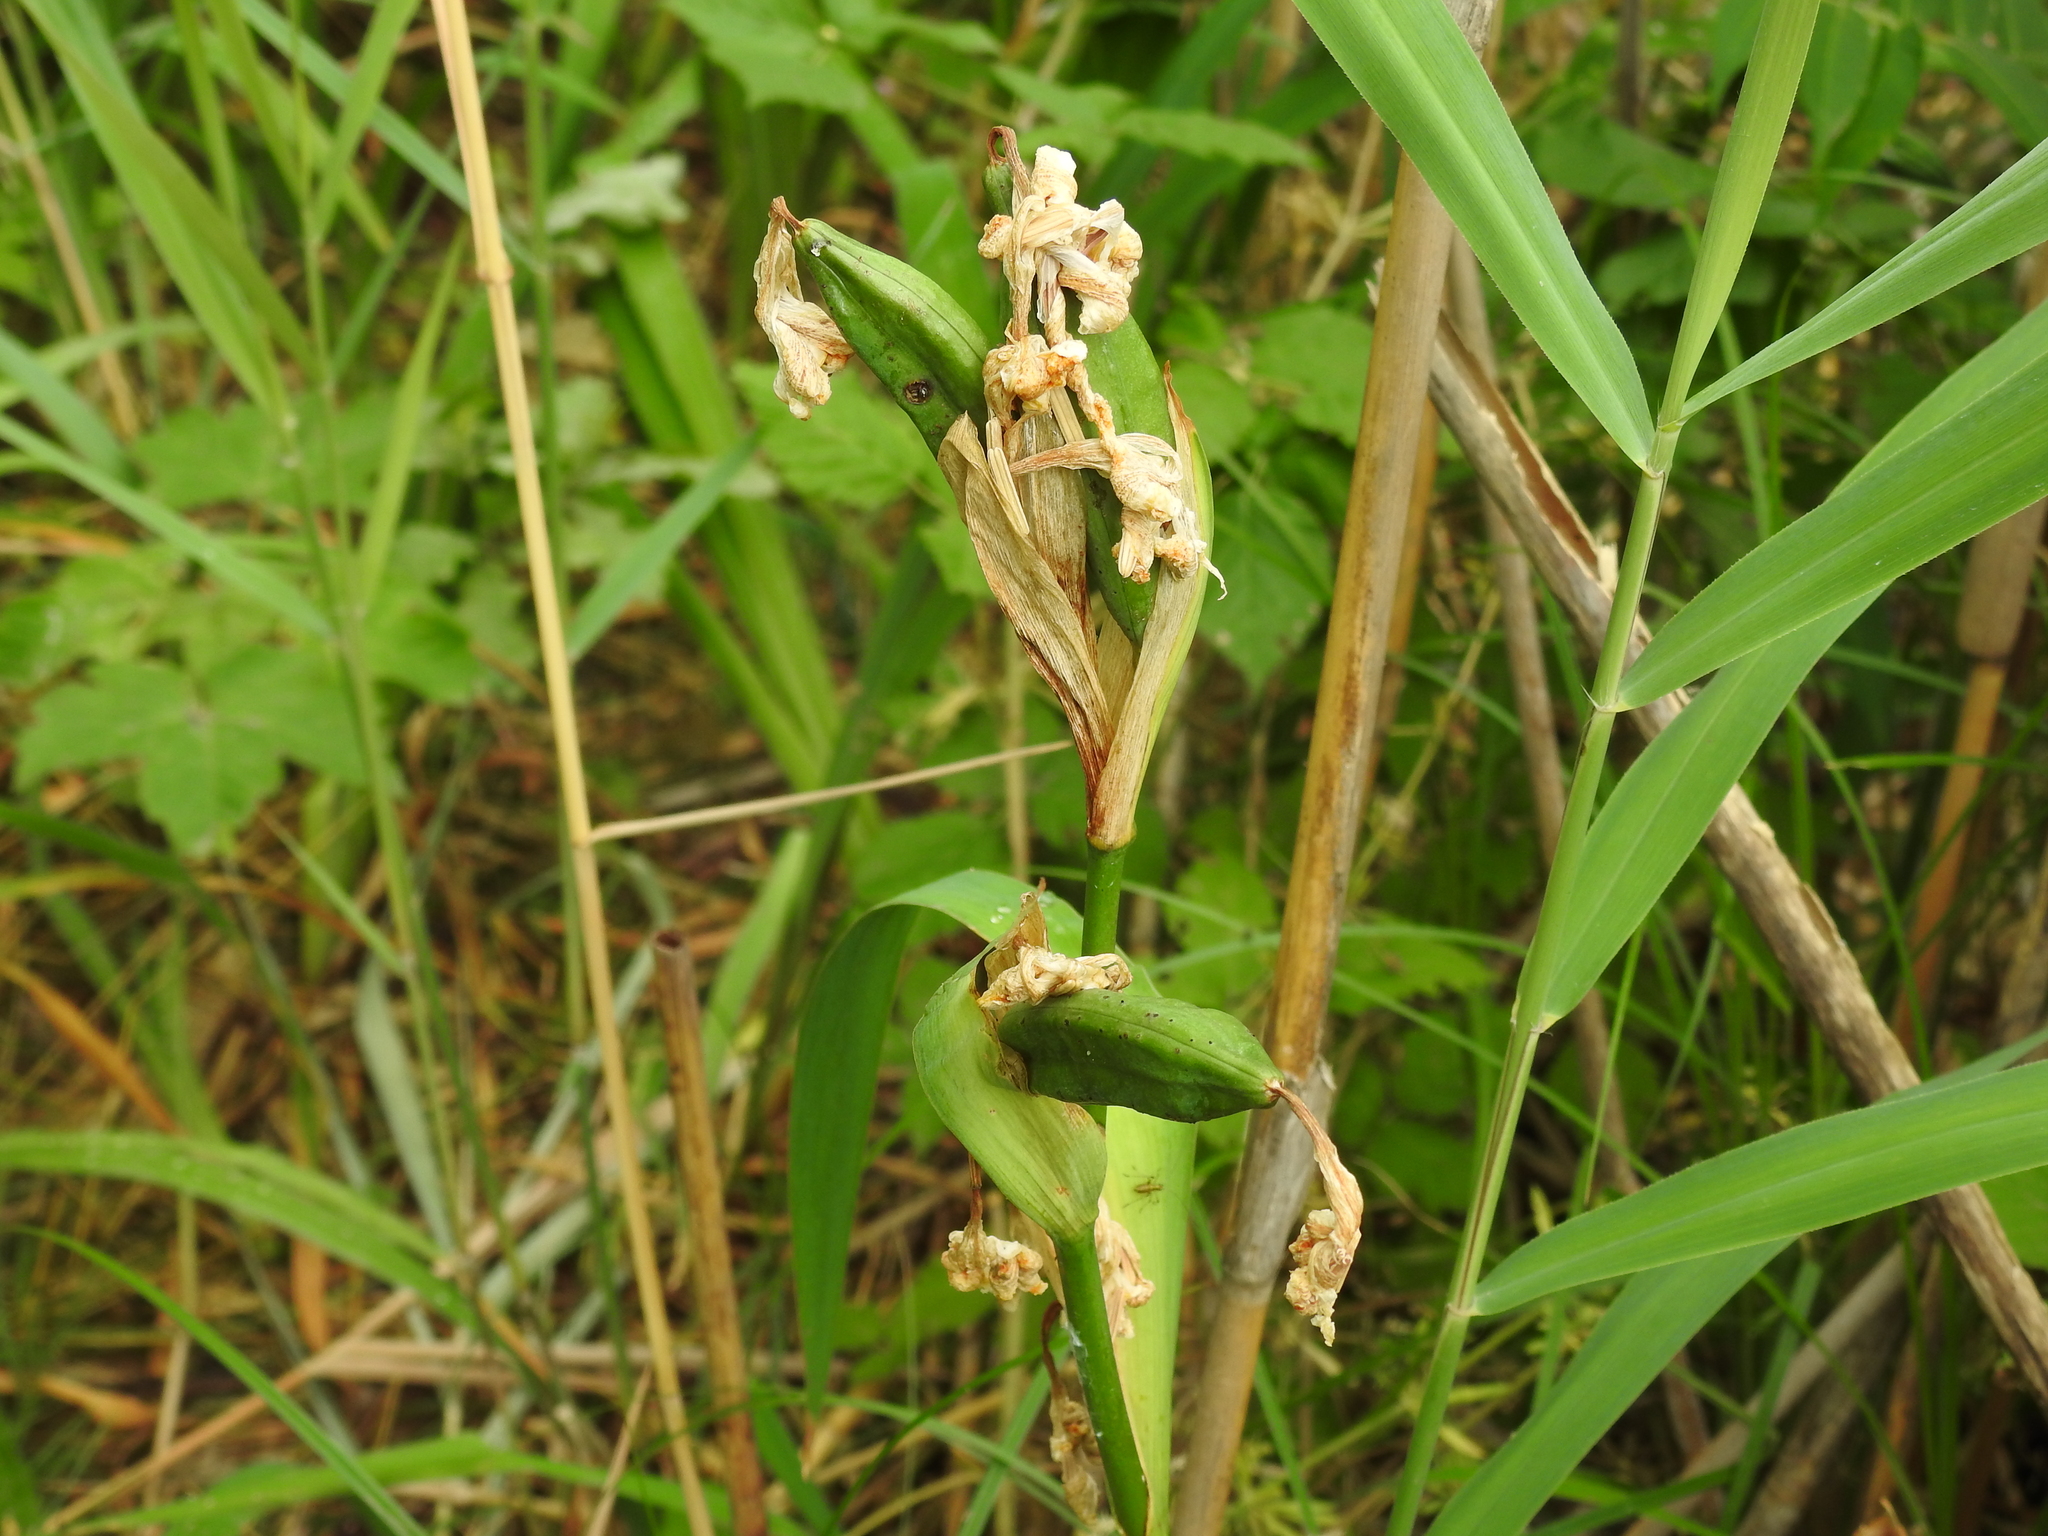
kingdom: Plantae
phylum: Tracheophyta
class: Liliopsida
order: Asparagales
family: Iridaceae
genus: Iris
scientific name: Iris pseudacorus
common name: Yellow flag
